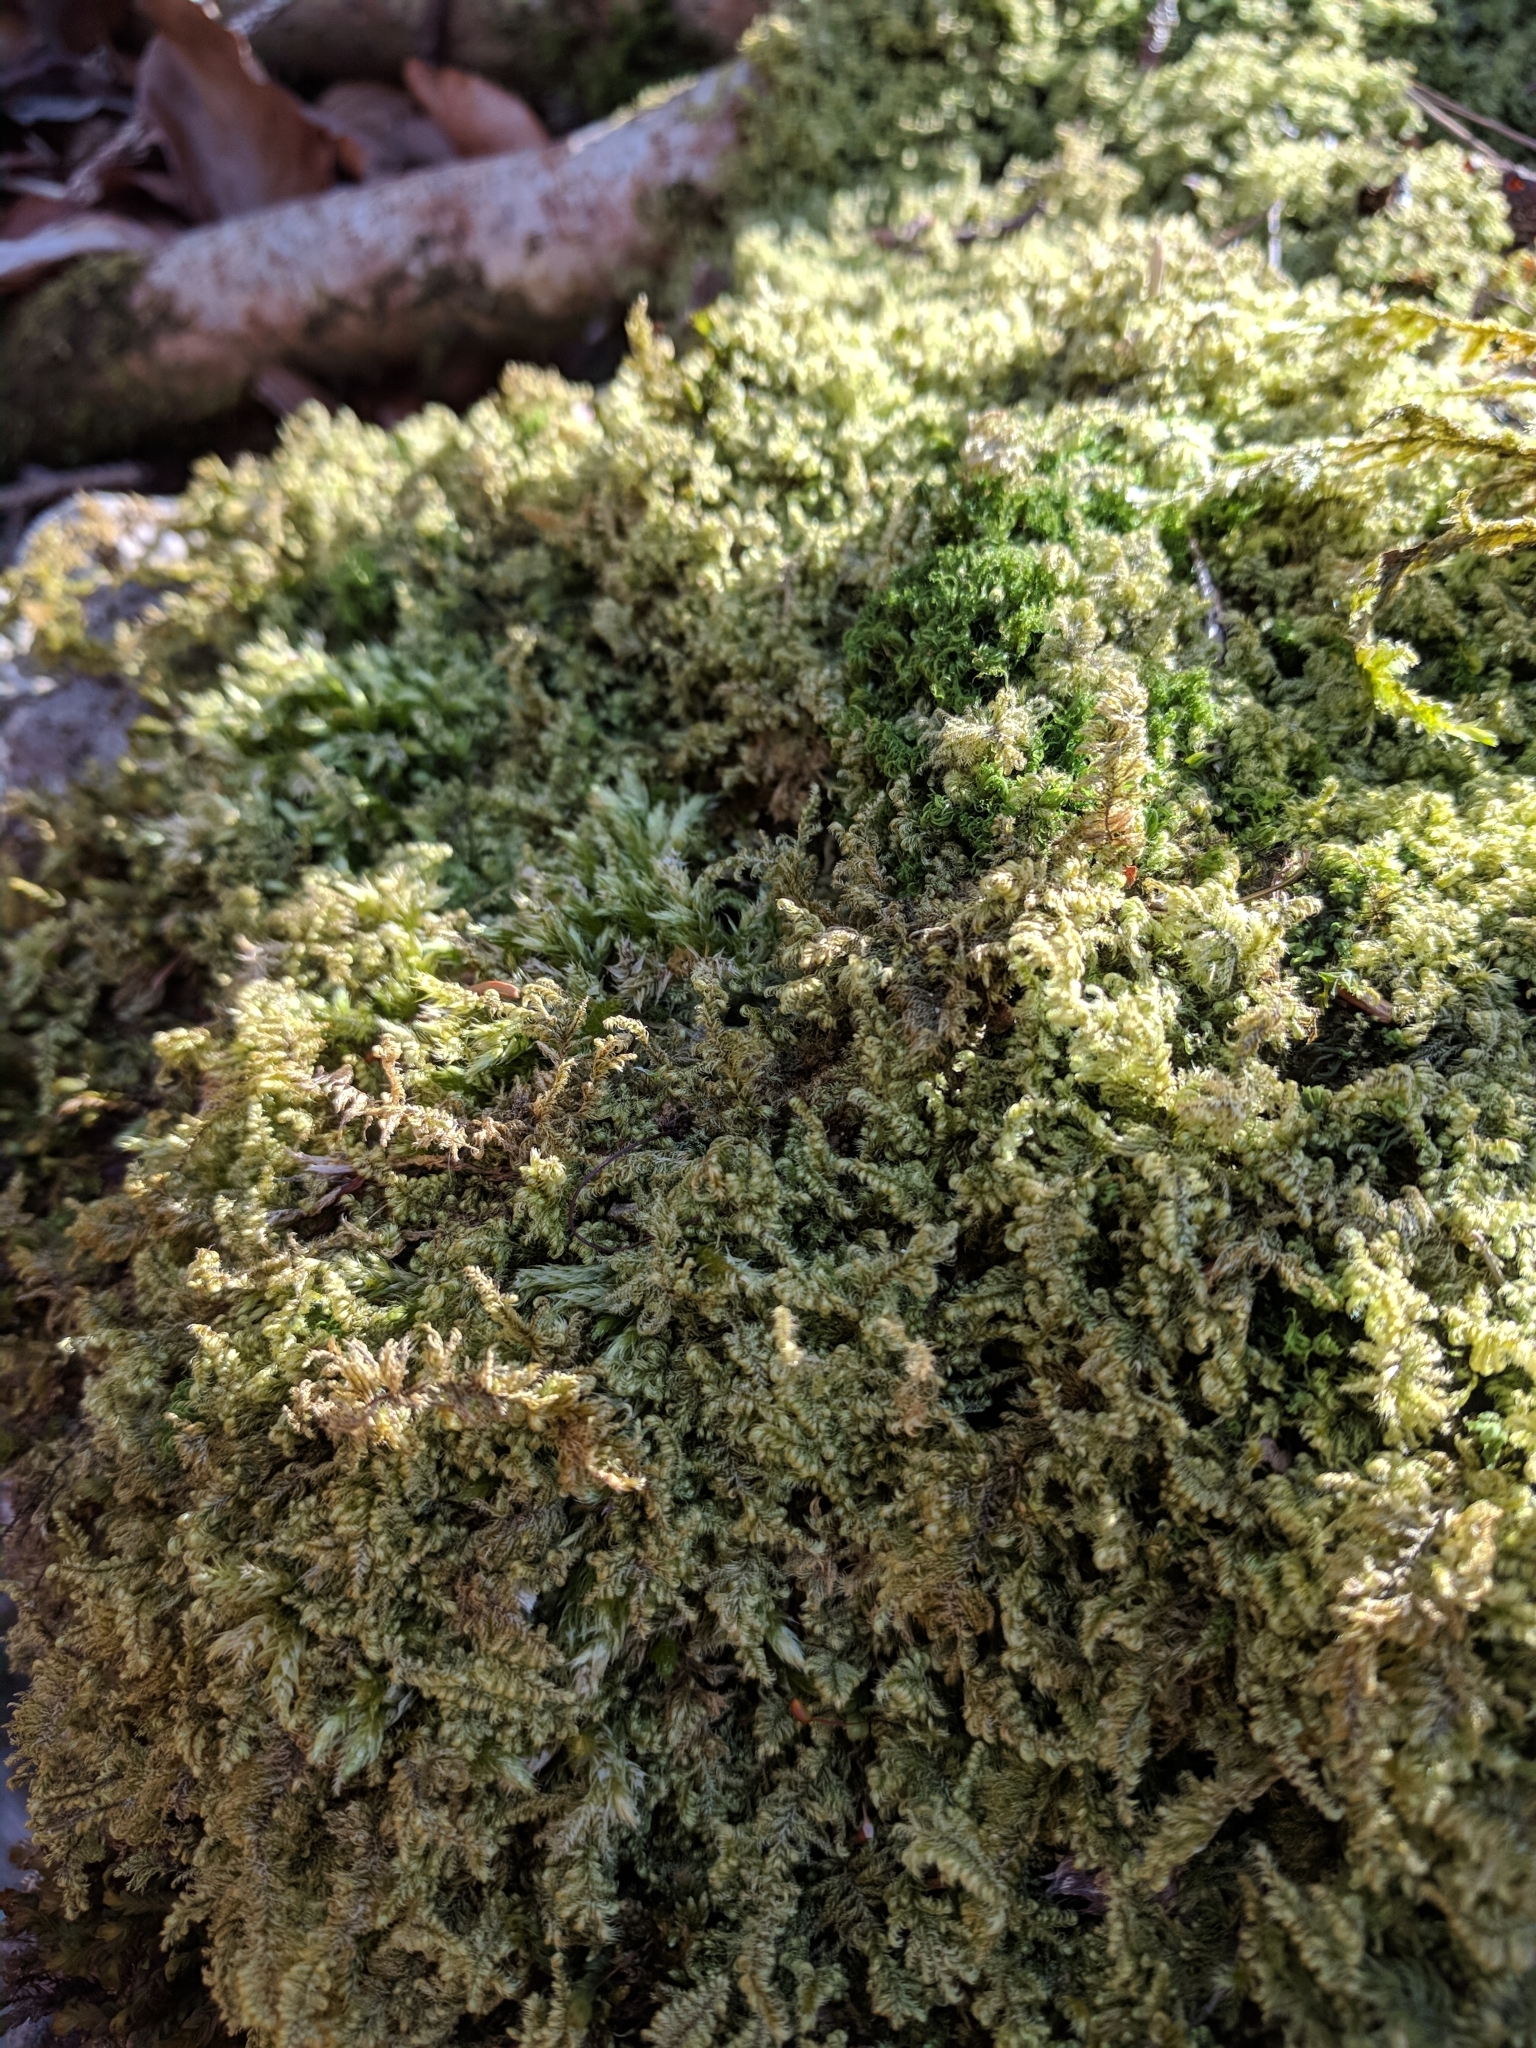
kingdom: Plantae
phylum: Bryophyta
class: Bryopsida
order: Hypnales
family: Myuriaceae
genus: Ctenidium
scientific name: Ctenidium molluscum
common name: Chalk comb-moss
